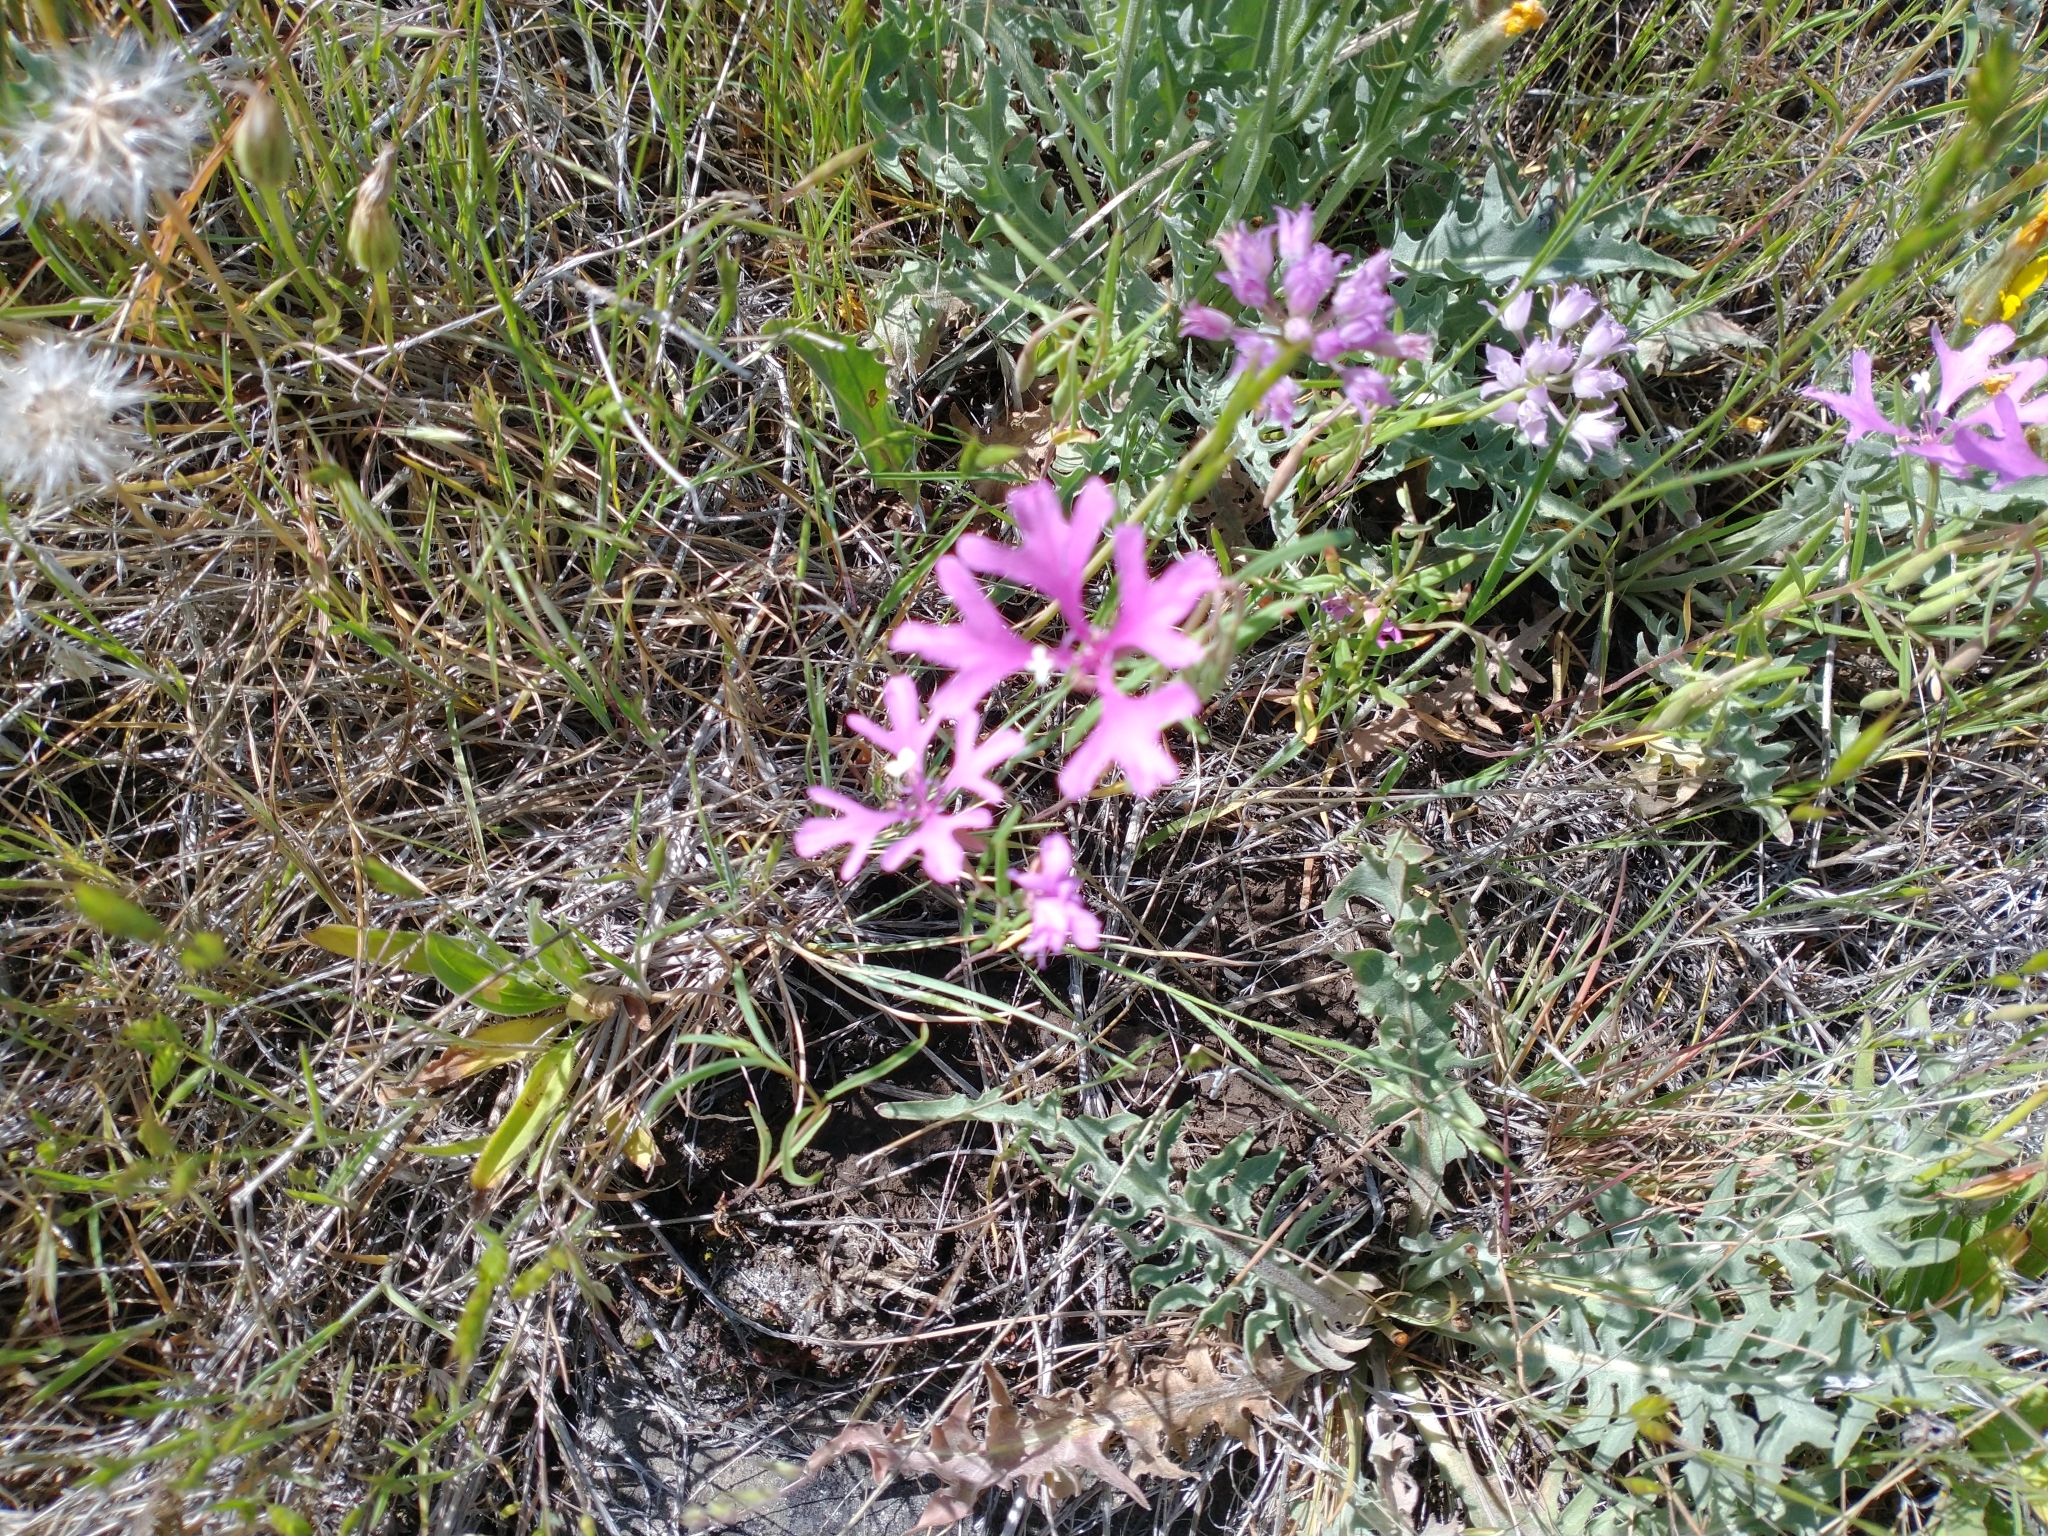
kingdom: Plantae
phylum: Tracheophyta
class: Magnoliopsida
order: Myrtales
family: Onagraceae
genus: Clarkia
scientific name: Clarkia pulchella
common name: Deer horn
